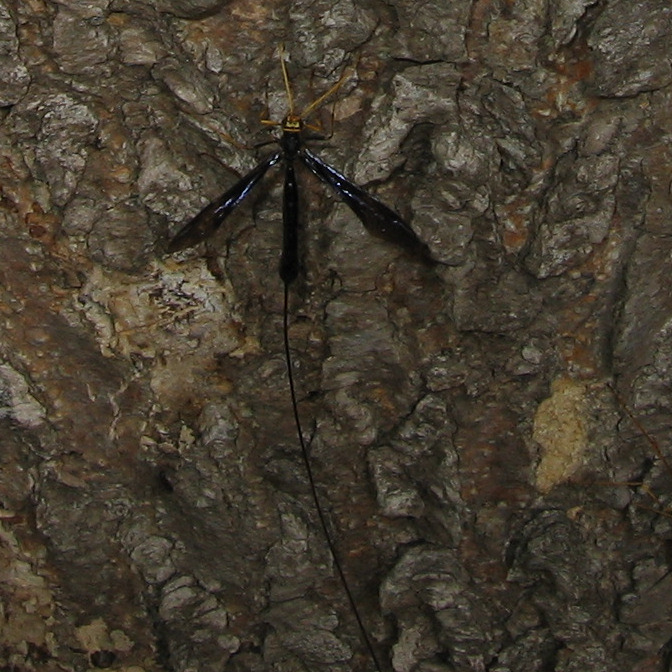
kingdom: Animalia
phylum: Arthropoda
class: Insecta
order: Hymenoptera
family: Ichneumonidae
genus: Megarhyssa
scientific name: Megarhyssa atrata
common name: Black giant ichneumonid wasp
